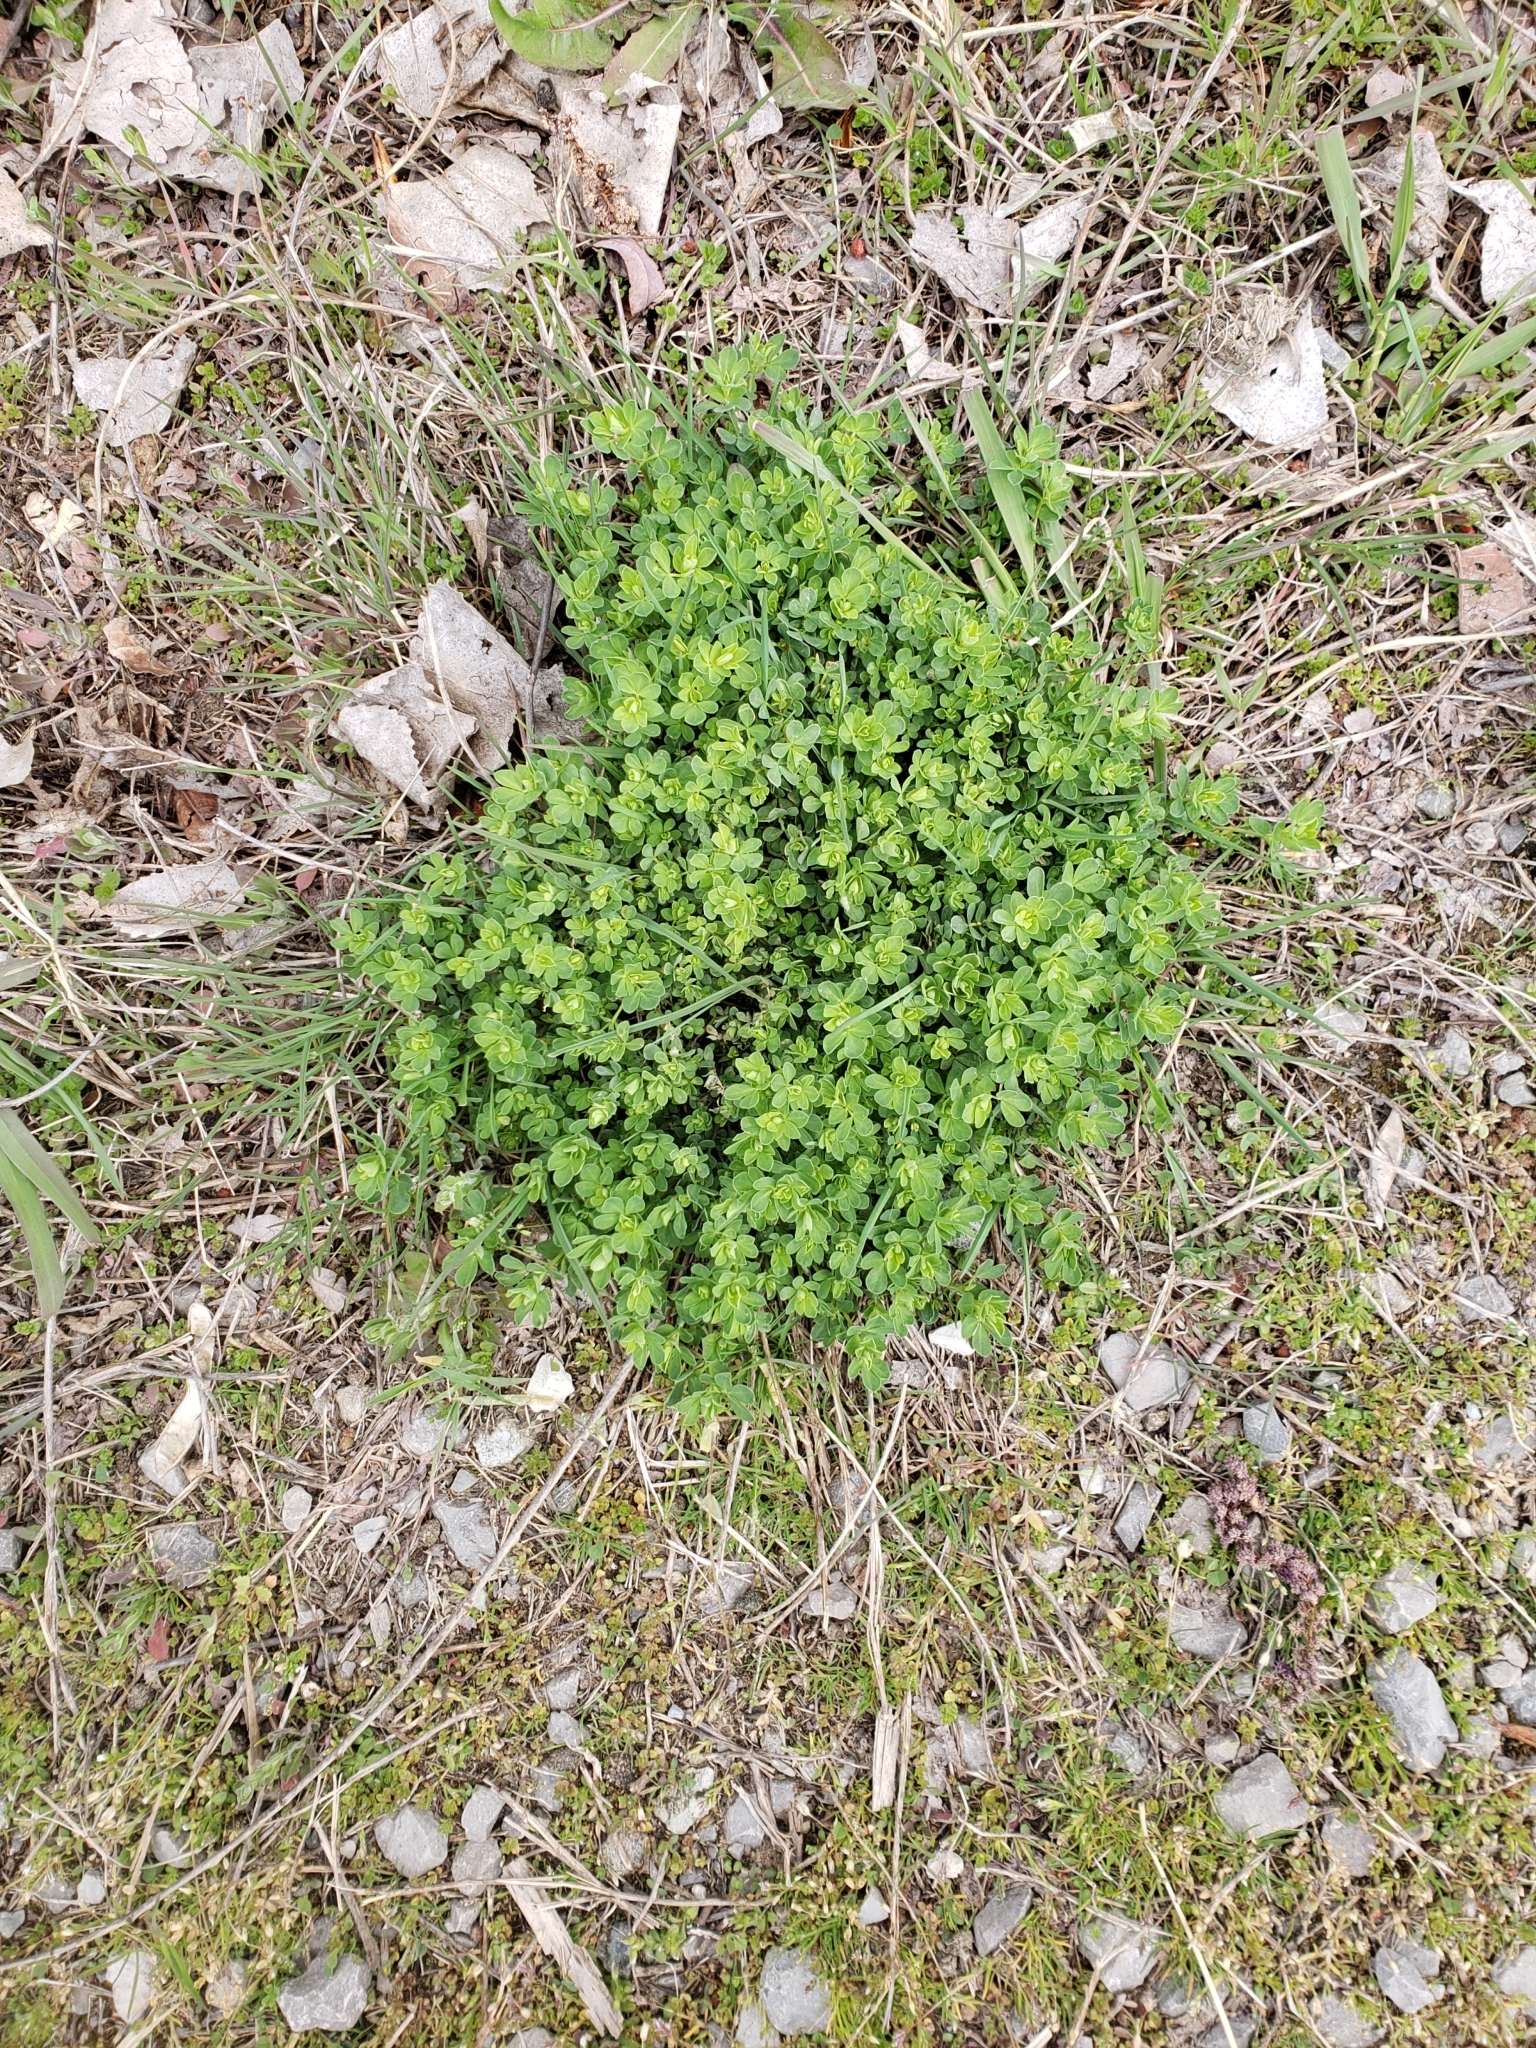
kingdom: Plantae
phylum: Tracheophyta
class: Magnoliopsida
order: Fabales
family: Fabaceae
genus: Lotus
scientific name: Lotus corniculatus
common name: Common bird's-foot-trefoil
